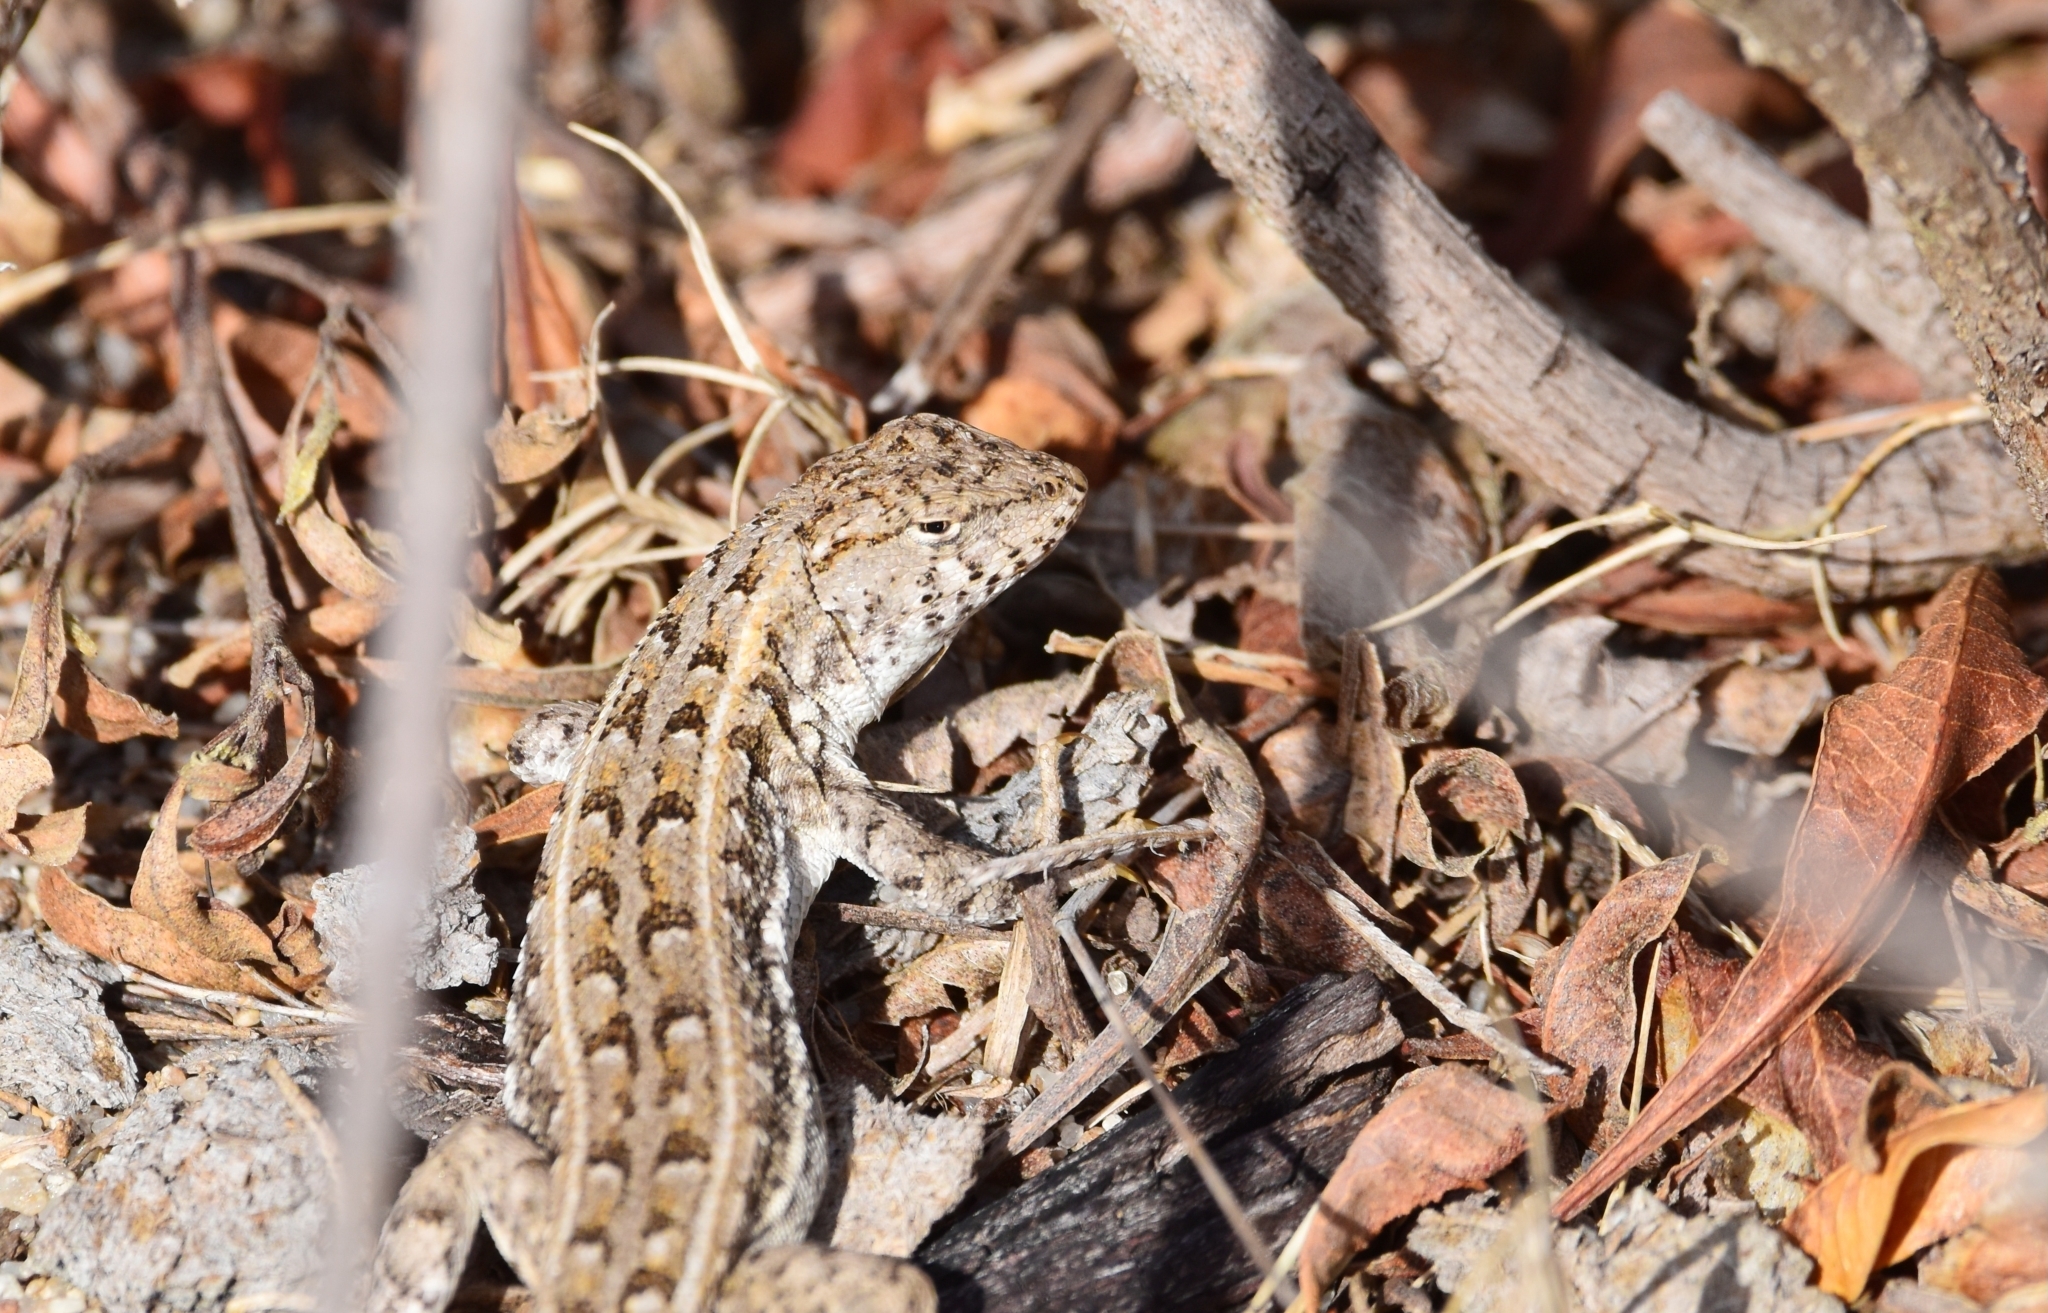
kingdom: Animalia
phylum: Chordata
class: Squamata
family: Liolaemidae
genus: Liolaemus
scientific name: Liolaemus wiegmannii
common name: Wiegmann's tree iguana
